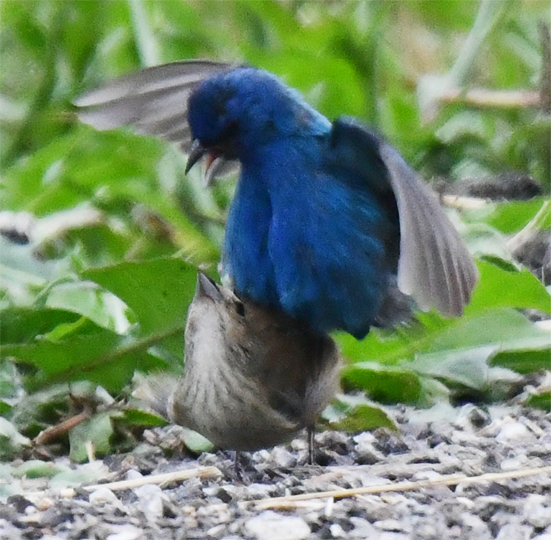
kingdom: Animalia
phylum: Chordata
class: Aves
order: Passeriformes
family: Cardinalidae
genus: Passerina
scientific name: Passerina cyanea
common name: Indigo bunting
